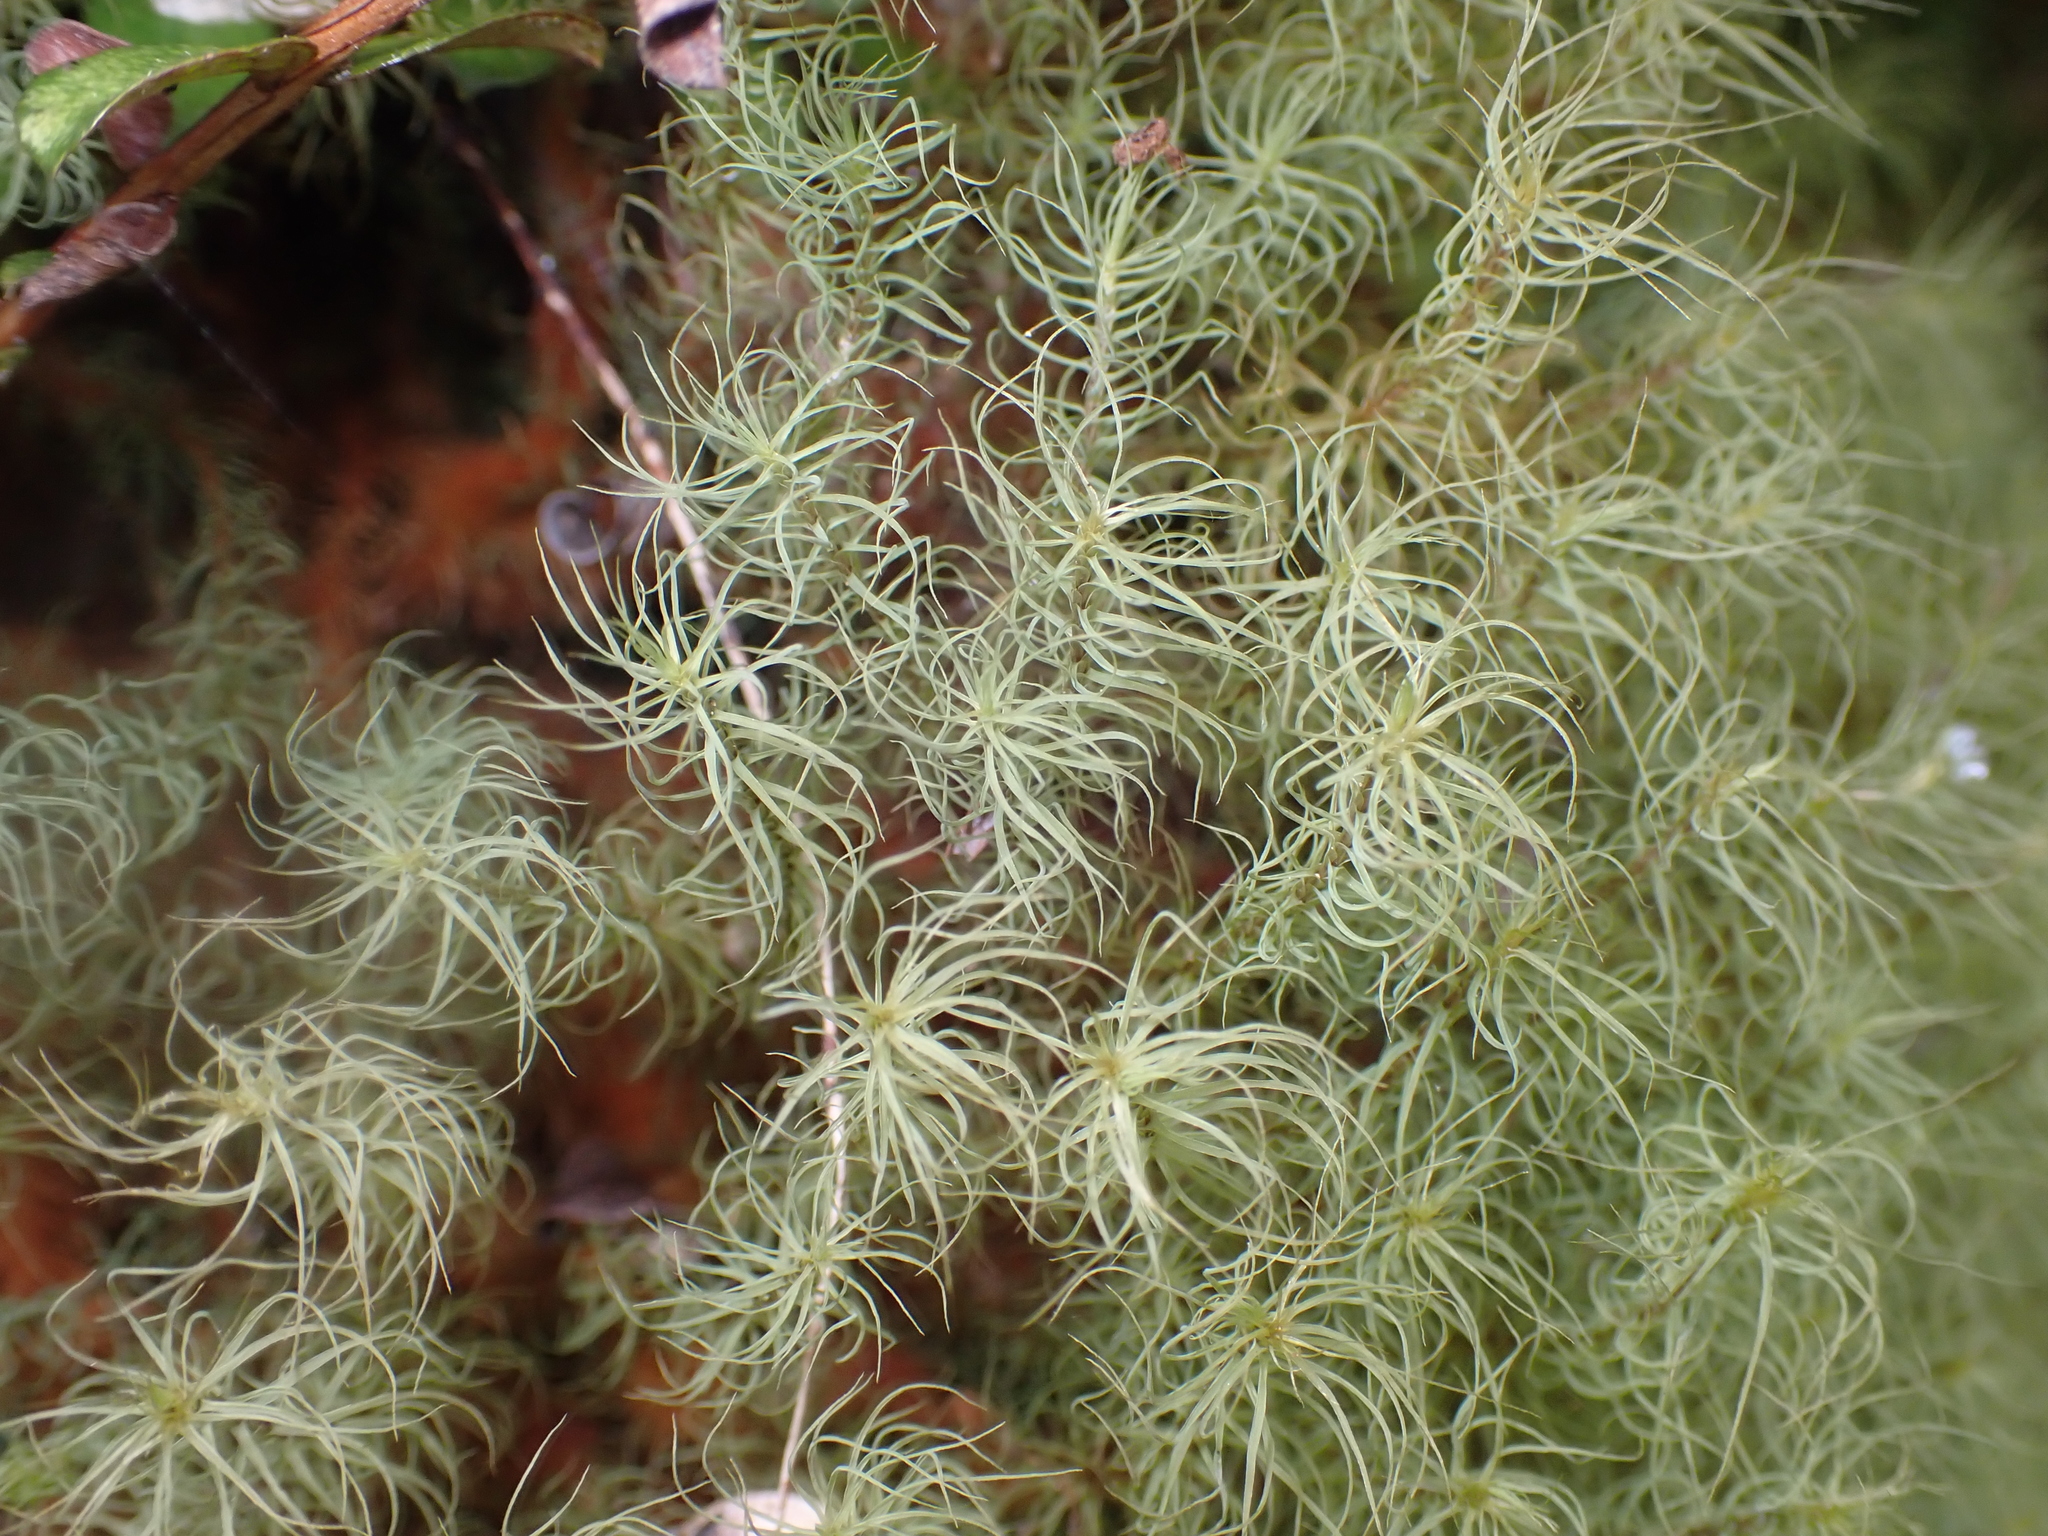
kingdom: Plantae
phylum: Bryophyta
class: Bryopsida
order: Bartramiales
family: Bartramiaceae
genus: Bartramia
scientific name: Bartramia mossmaniana
